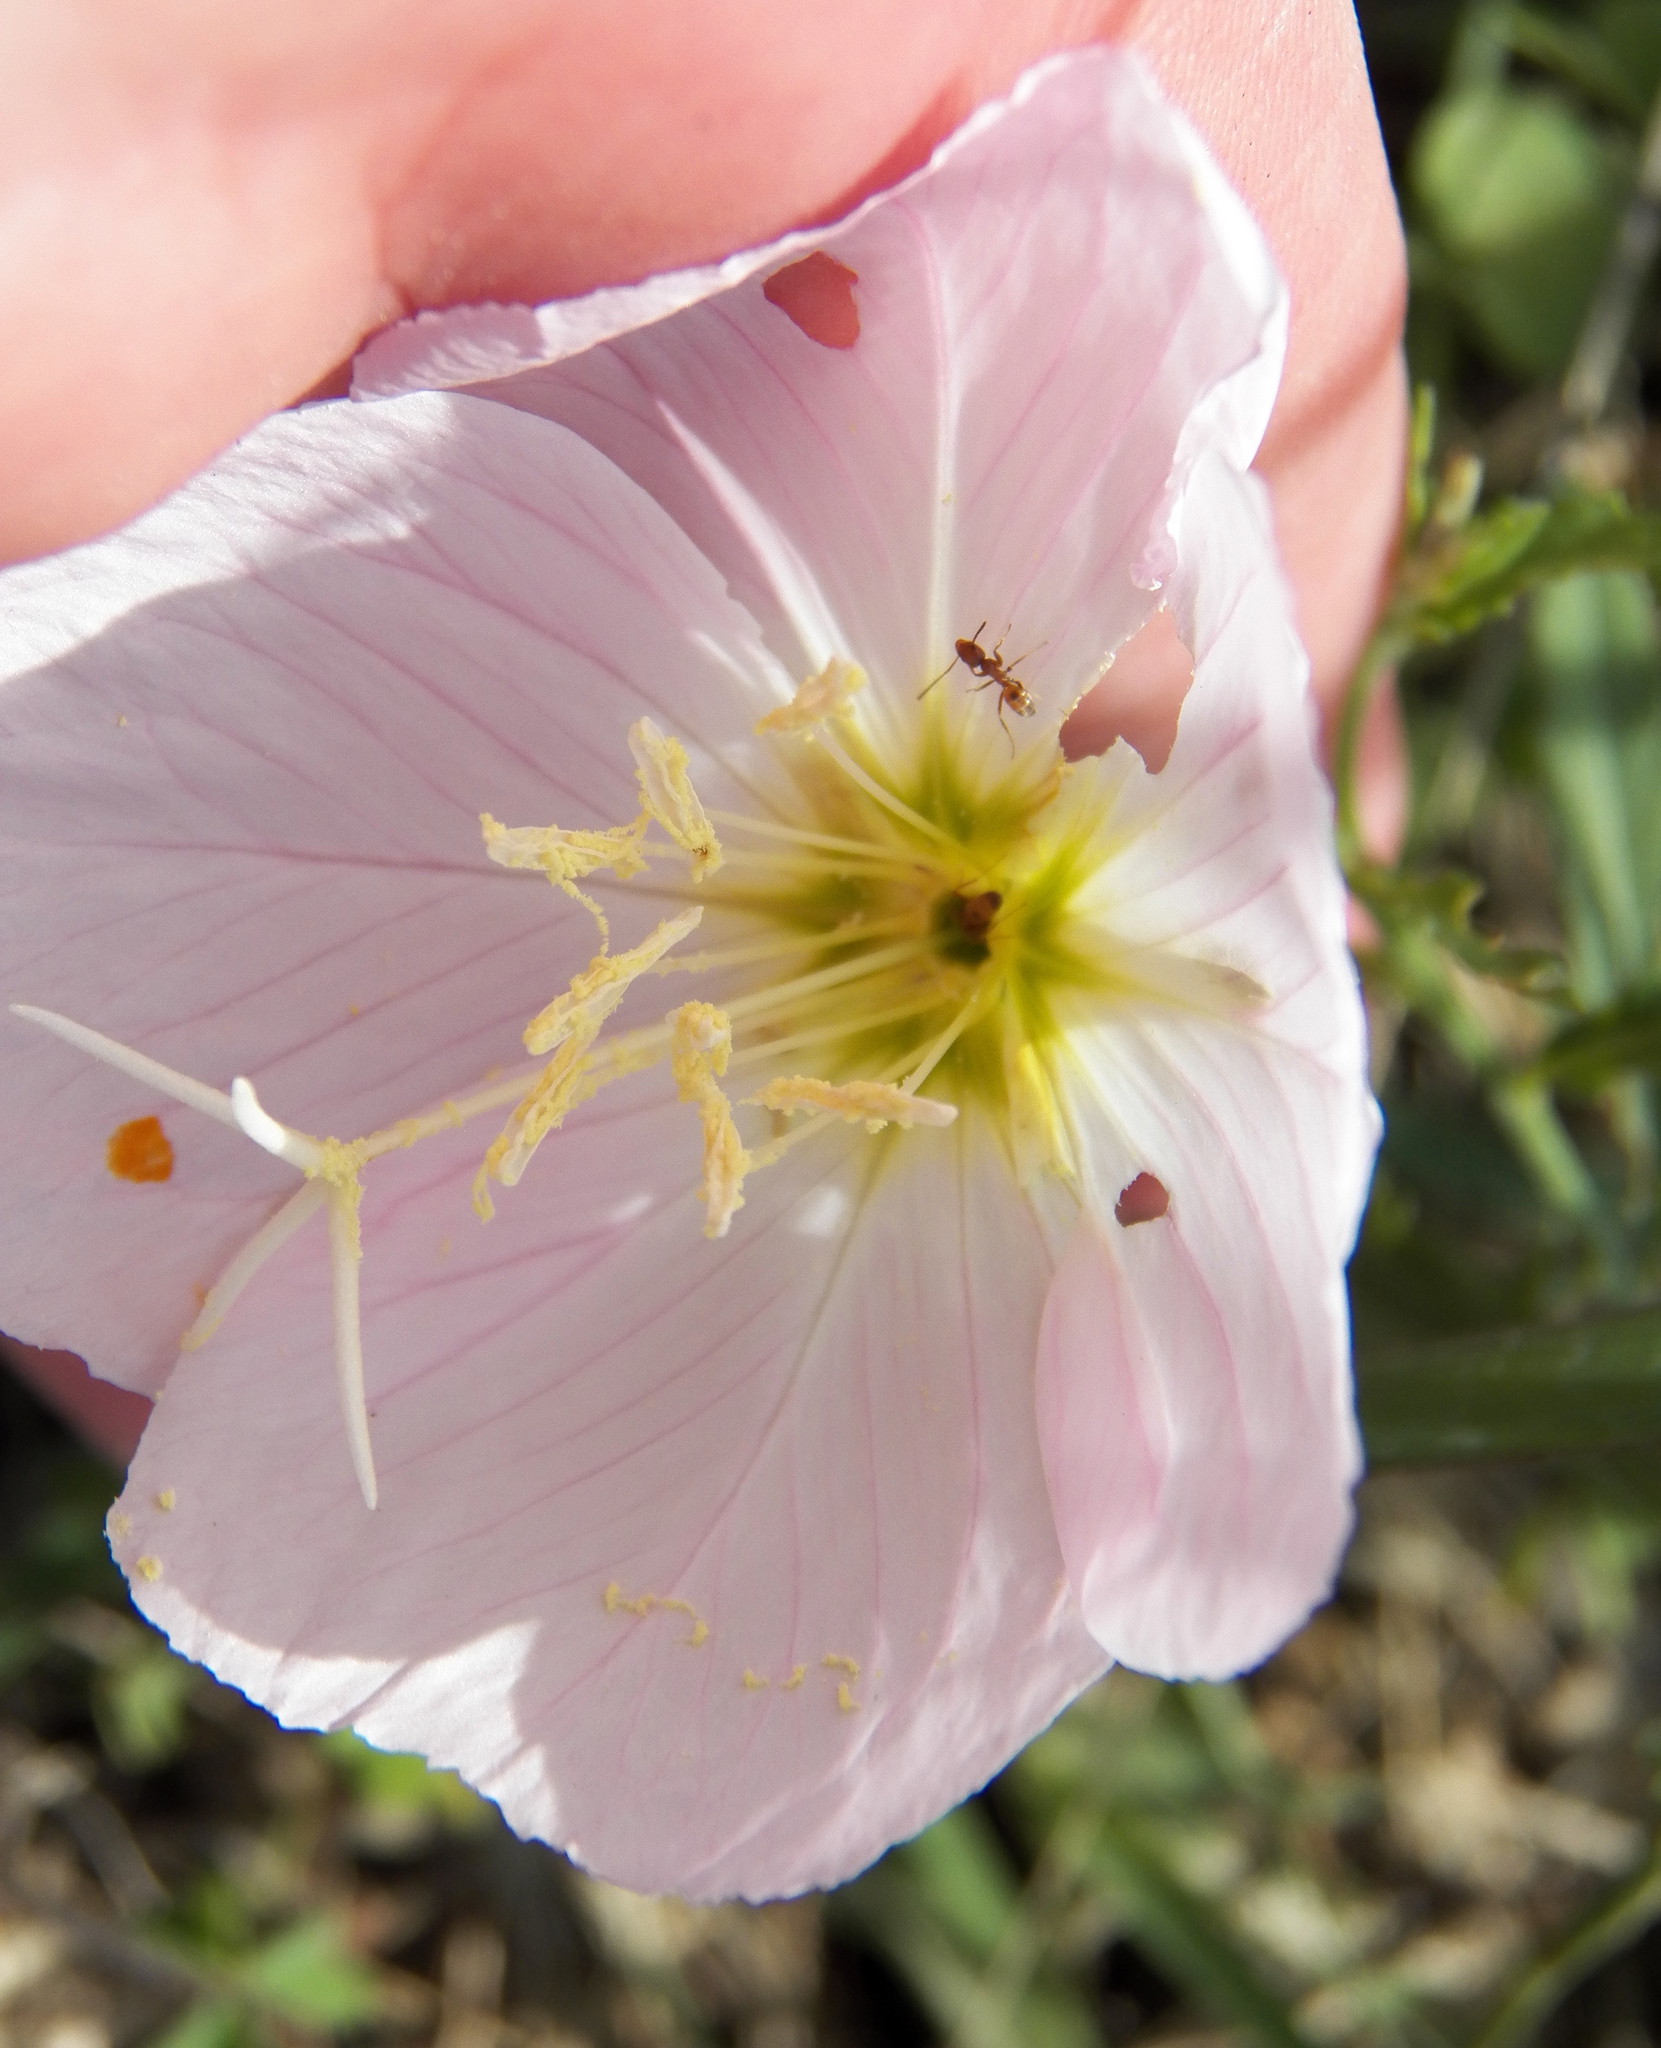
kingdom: Plantae
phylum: Tracheophyta
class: Magnoliopsida
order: Myrtales
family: Onagraceae
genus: Oenothera
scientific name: Oenothera speciosa
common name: White evening-primrose
